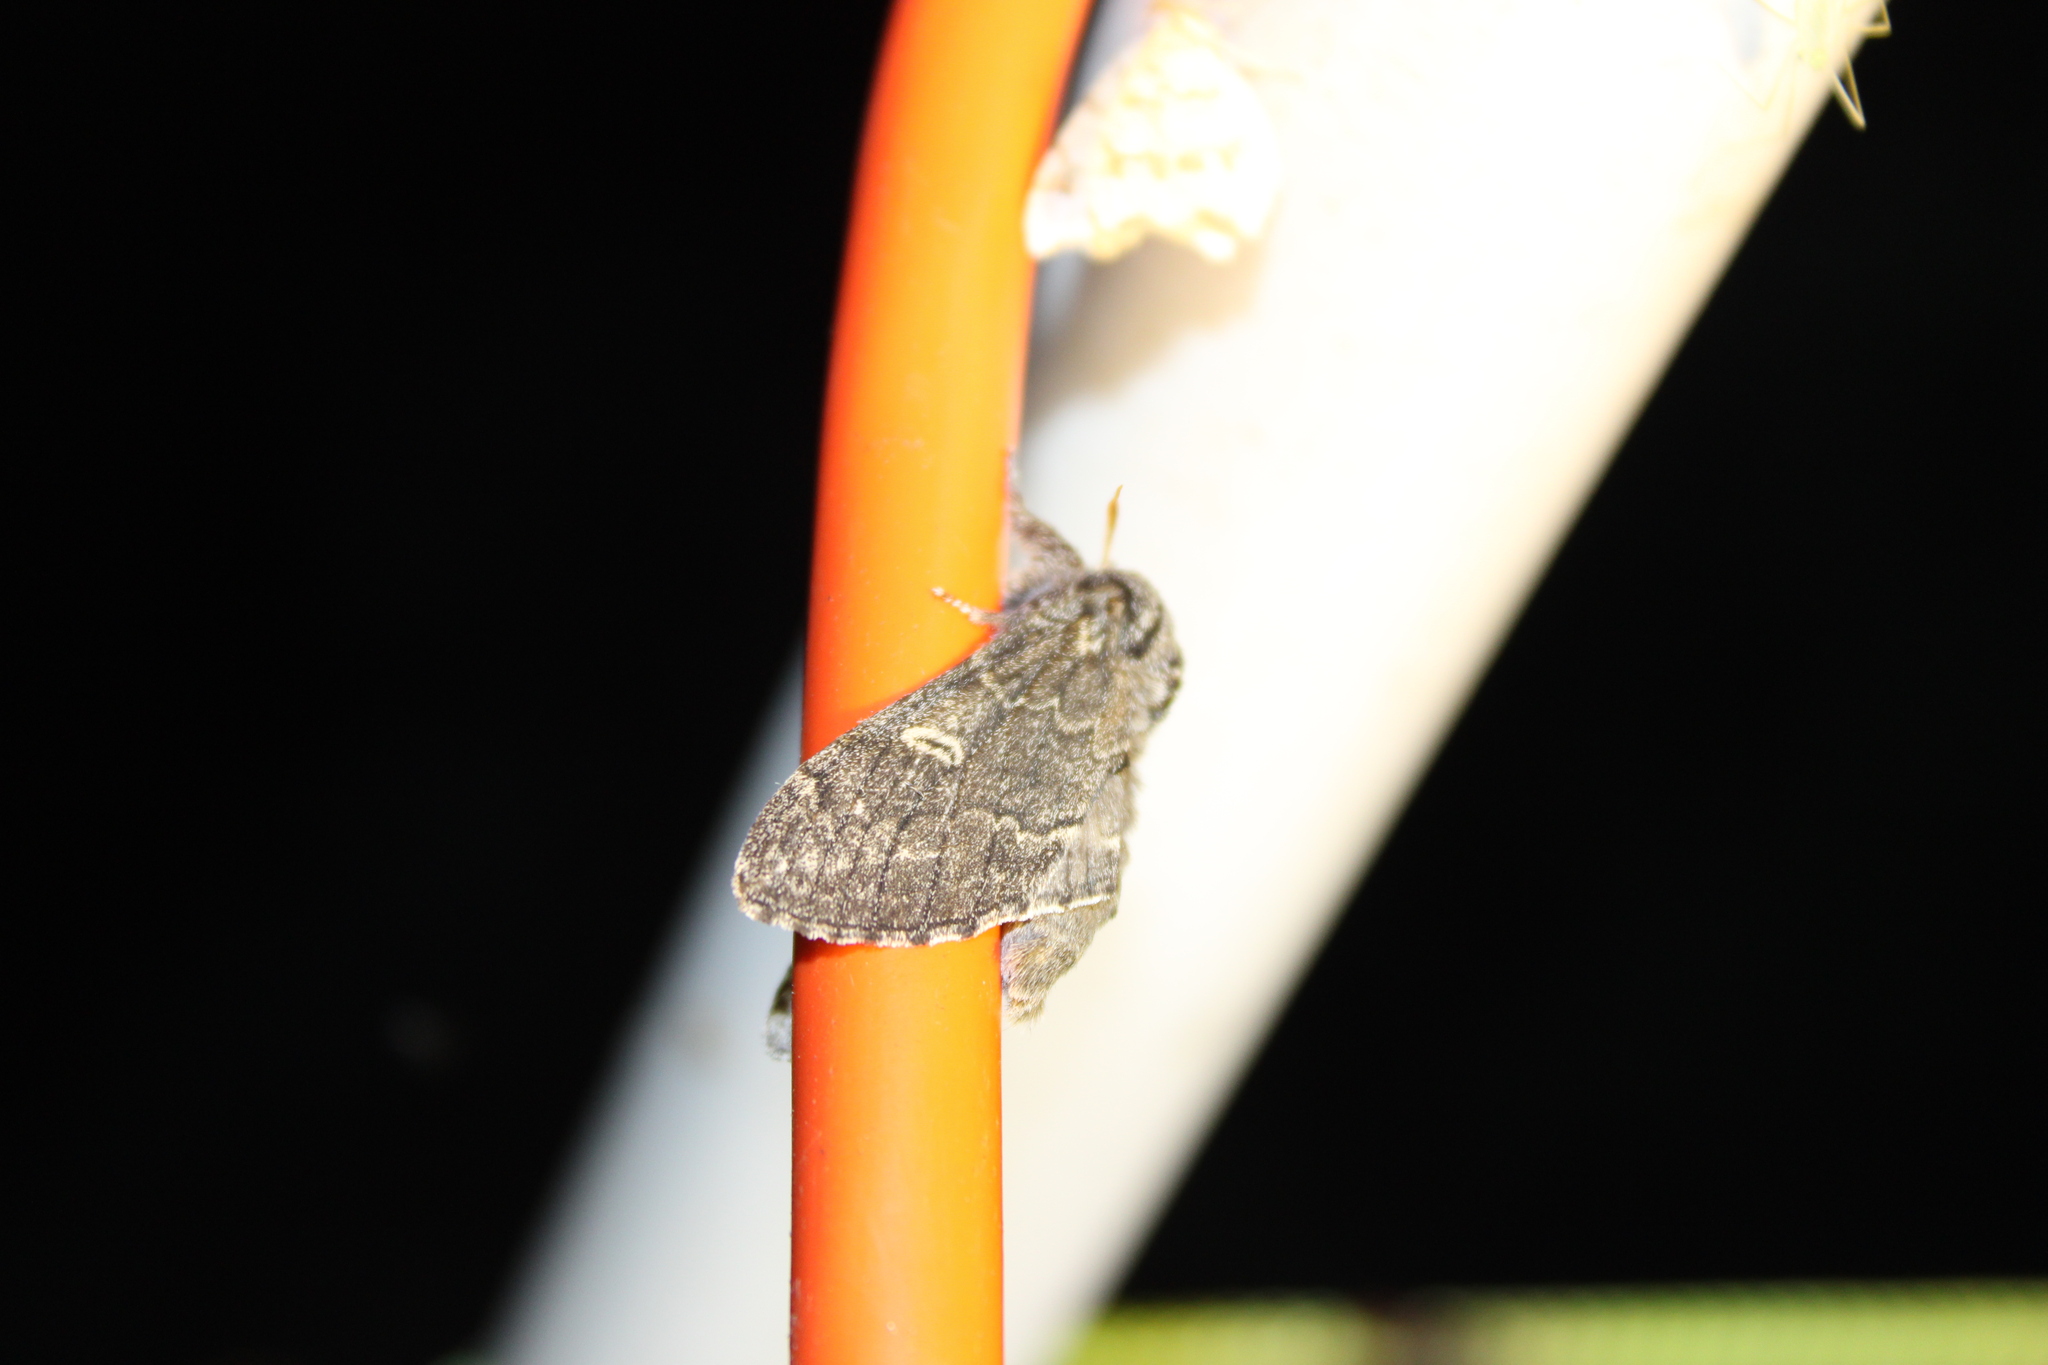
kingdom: Animalia
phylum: Arthropoda
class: Insecta
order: Lepidoptera
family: Notodontidae
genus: Notodonta
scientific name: Notodonta torva
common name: Large dark prominent
